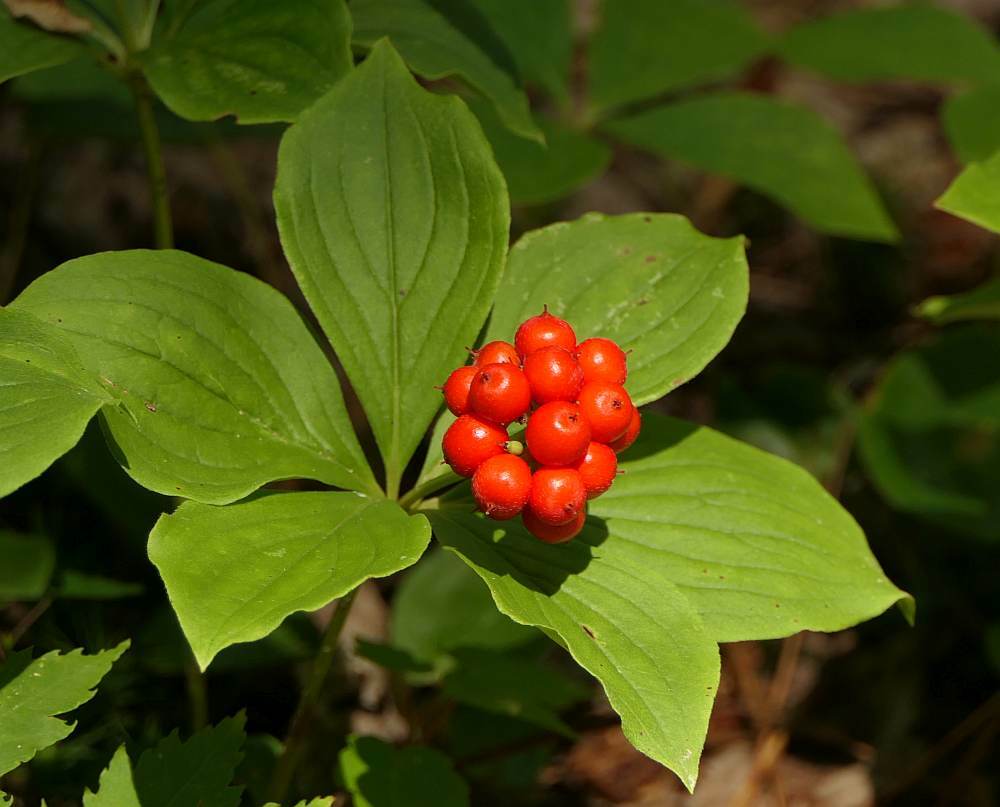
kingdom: Plantae
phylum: Tracheophyta
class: Magnoliopsida
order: Cornales
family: Cornaceae
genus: Cornus
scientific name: Cornus canadensis
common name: Creeping dogwood
